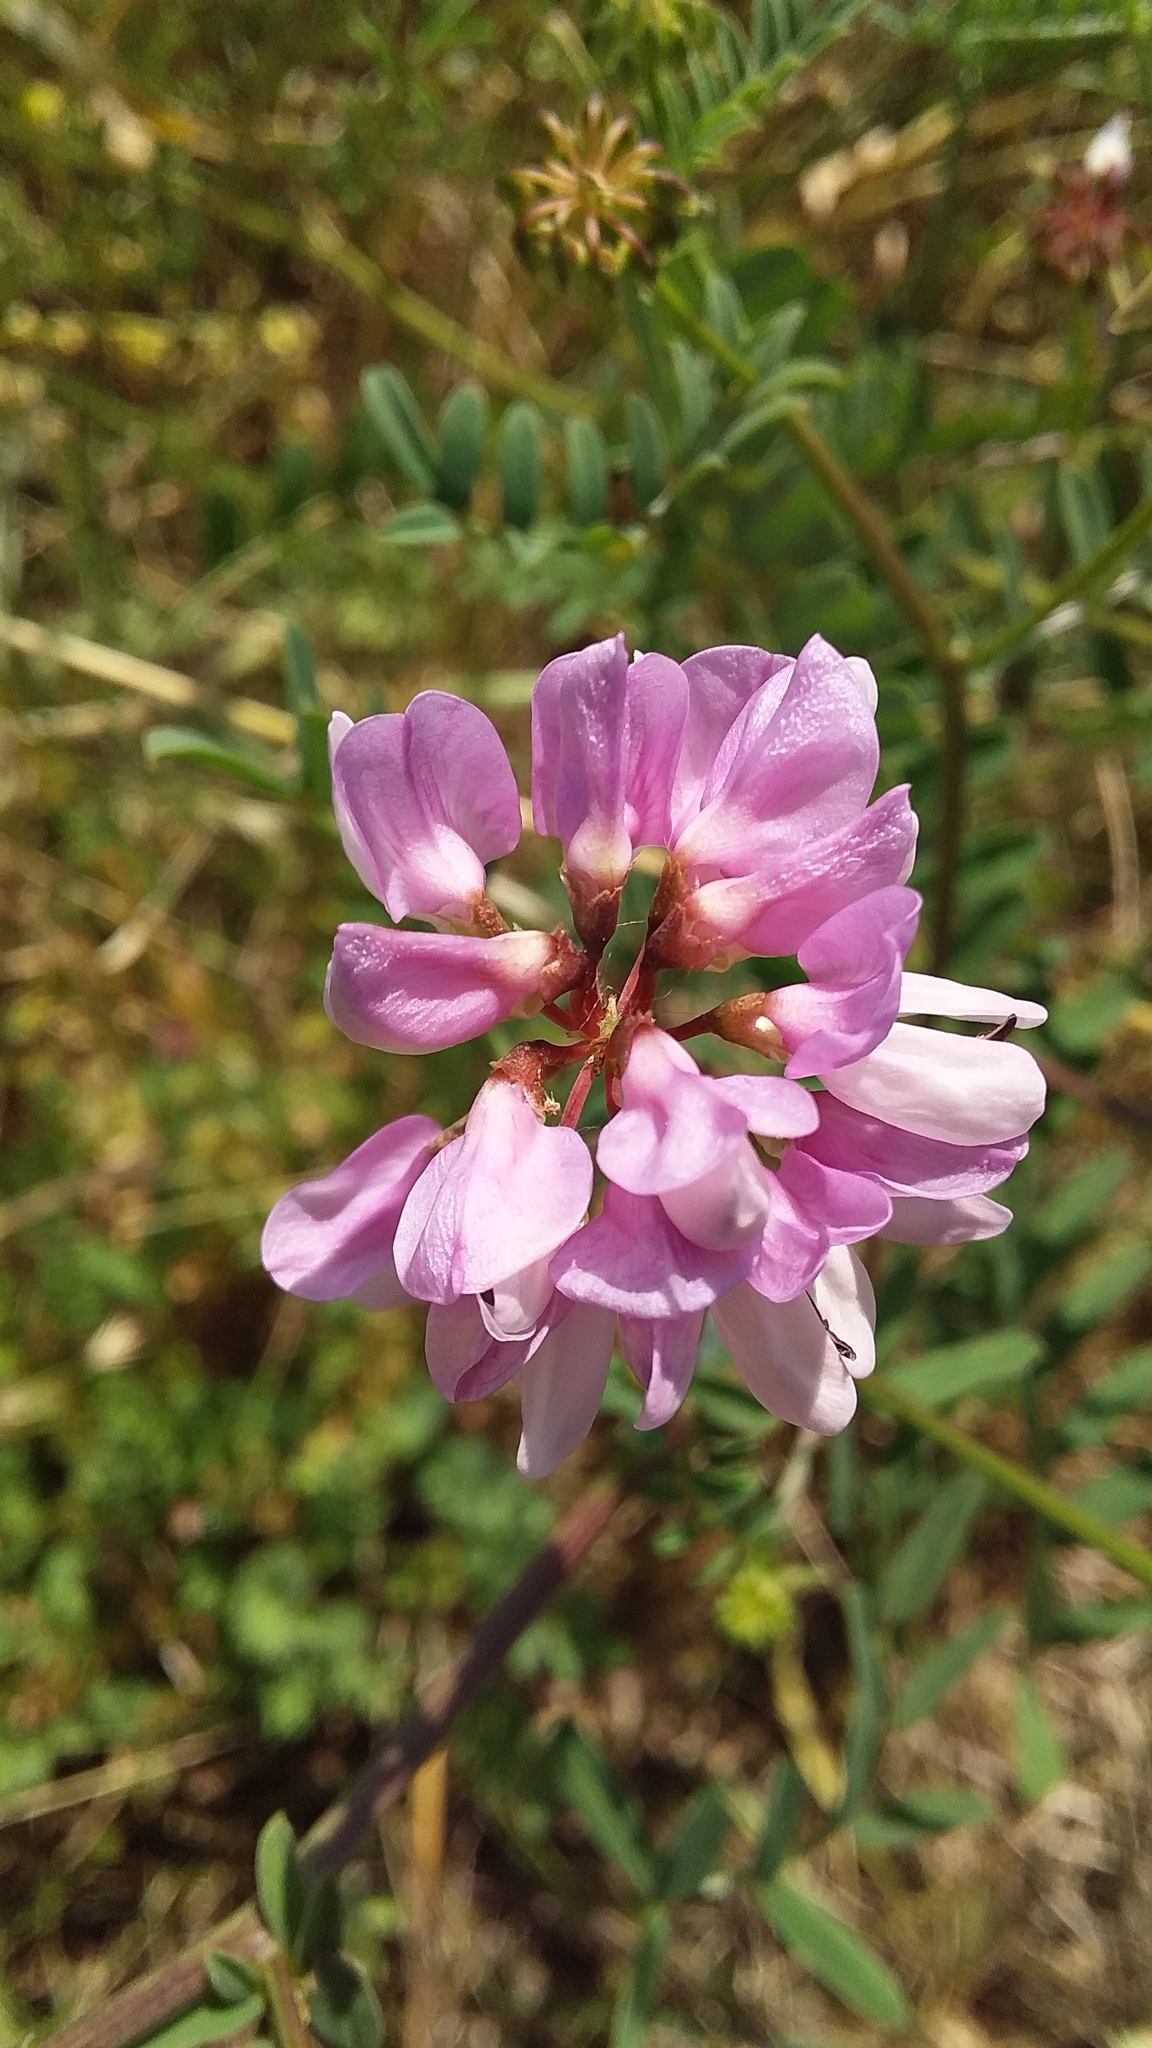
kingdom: Plantae
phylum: Tracheophyta
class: Magnoliopsida
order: Fabales
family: Fabaceae
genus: Coronilla
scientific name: Coronilla varia
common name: Crownvetch
